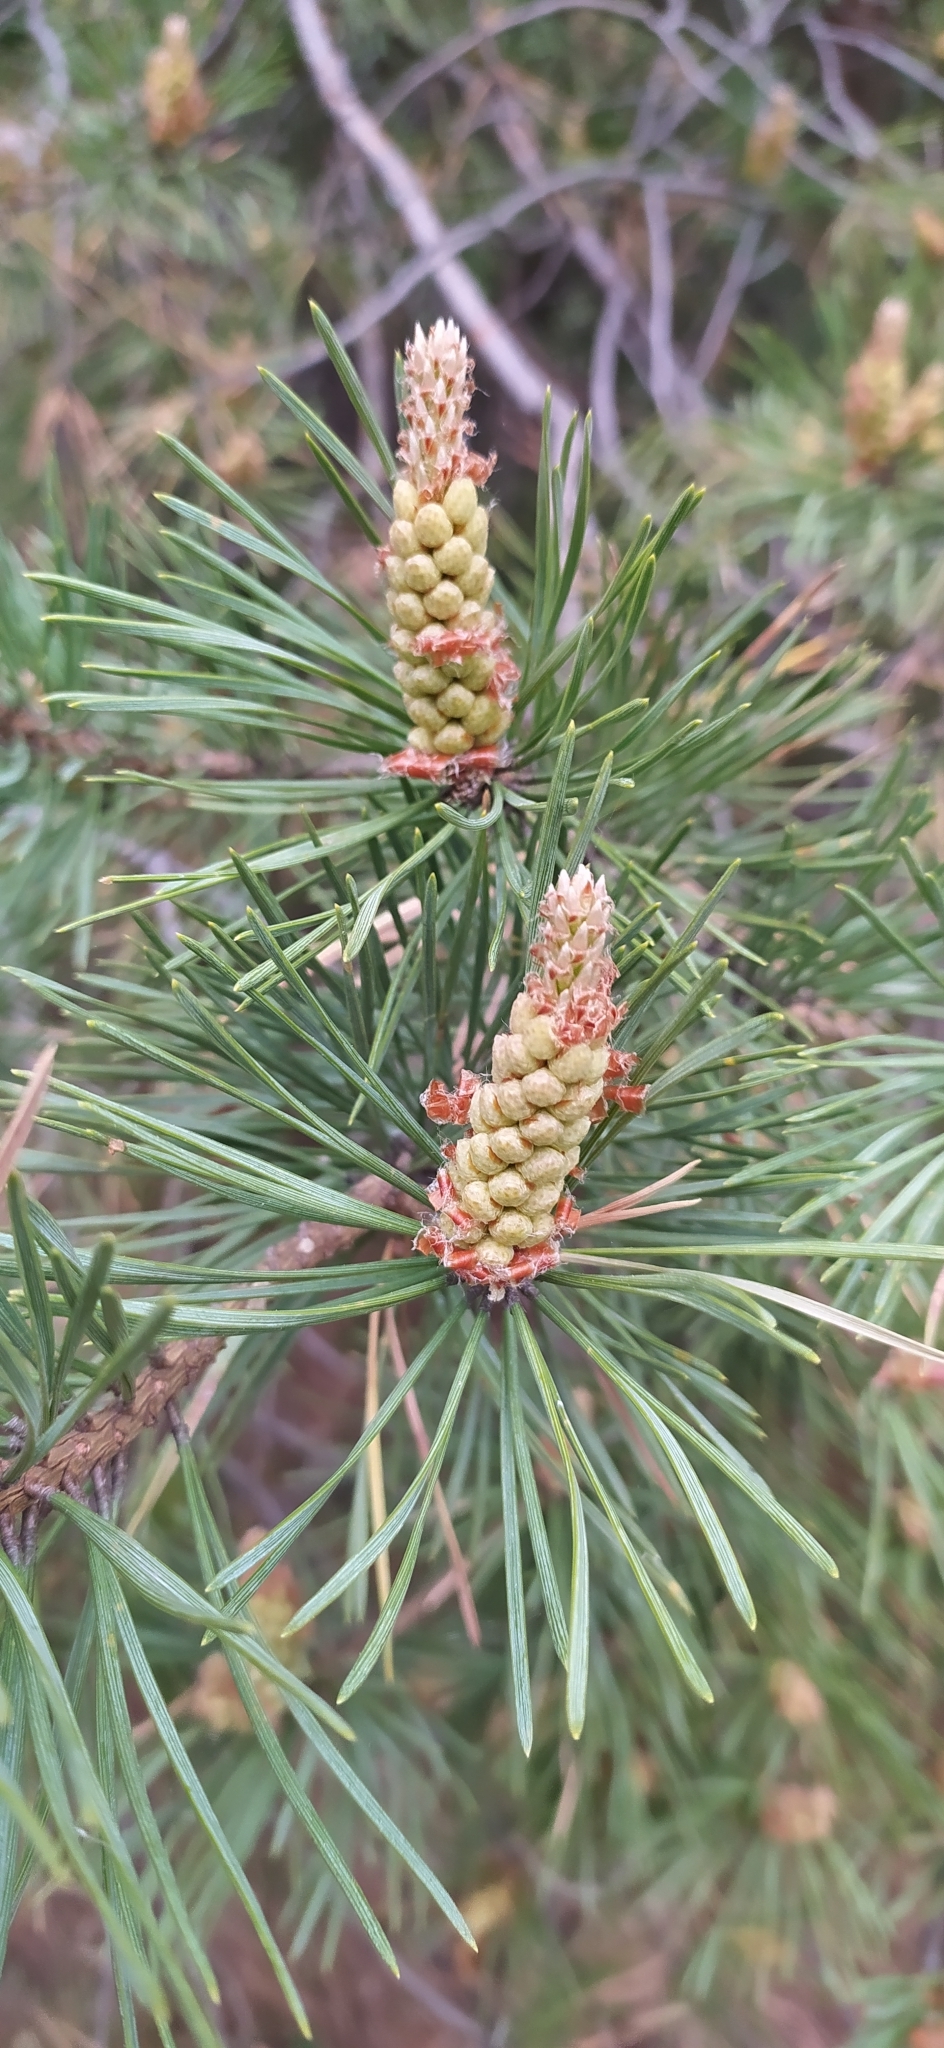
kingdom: Plantae
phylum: Tracheophyta
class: Pinopsida
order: Pinales
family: Pinaceae
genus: Pinus
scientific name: Pinus sylvestris
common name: Scots pine
